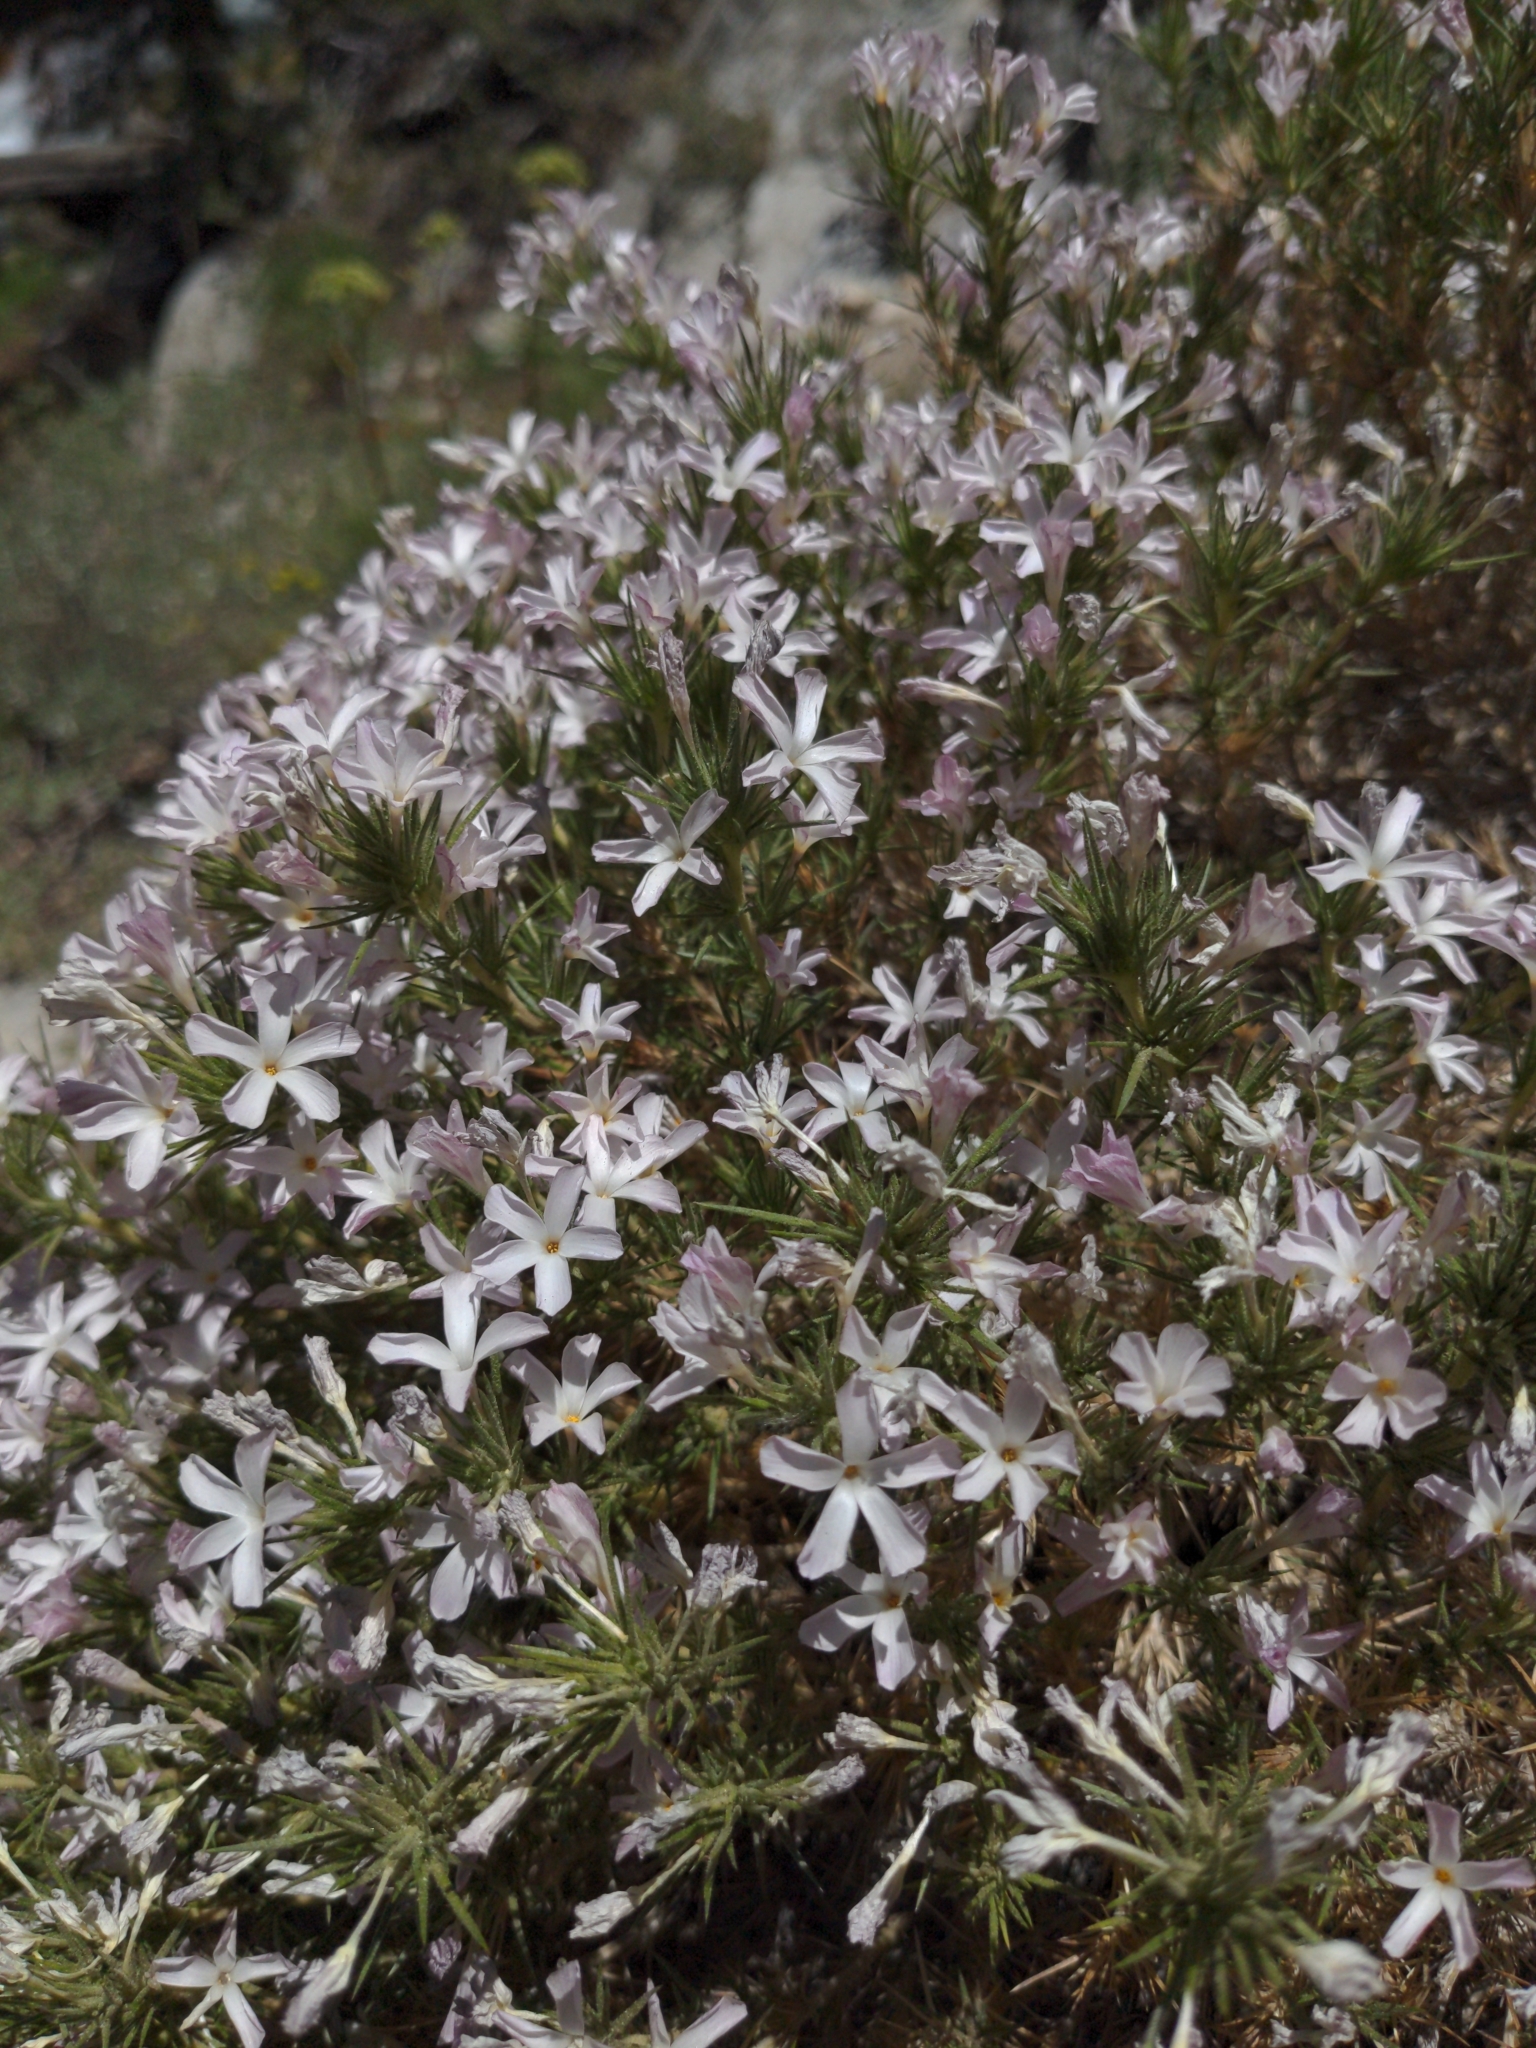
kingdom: Plantae
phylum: Tracheophyta
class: Magnoliopsida
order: Ericales
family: Polemoniaceae
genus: Linanthus
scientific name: Linanthus pungens
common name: Granite prickly phlox
